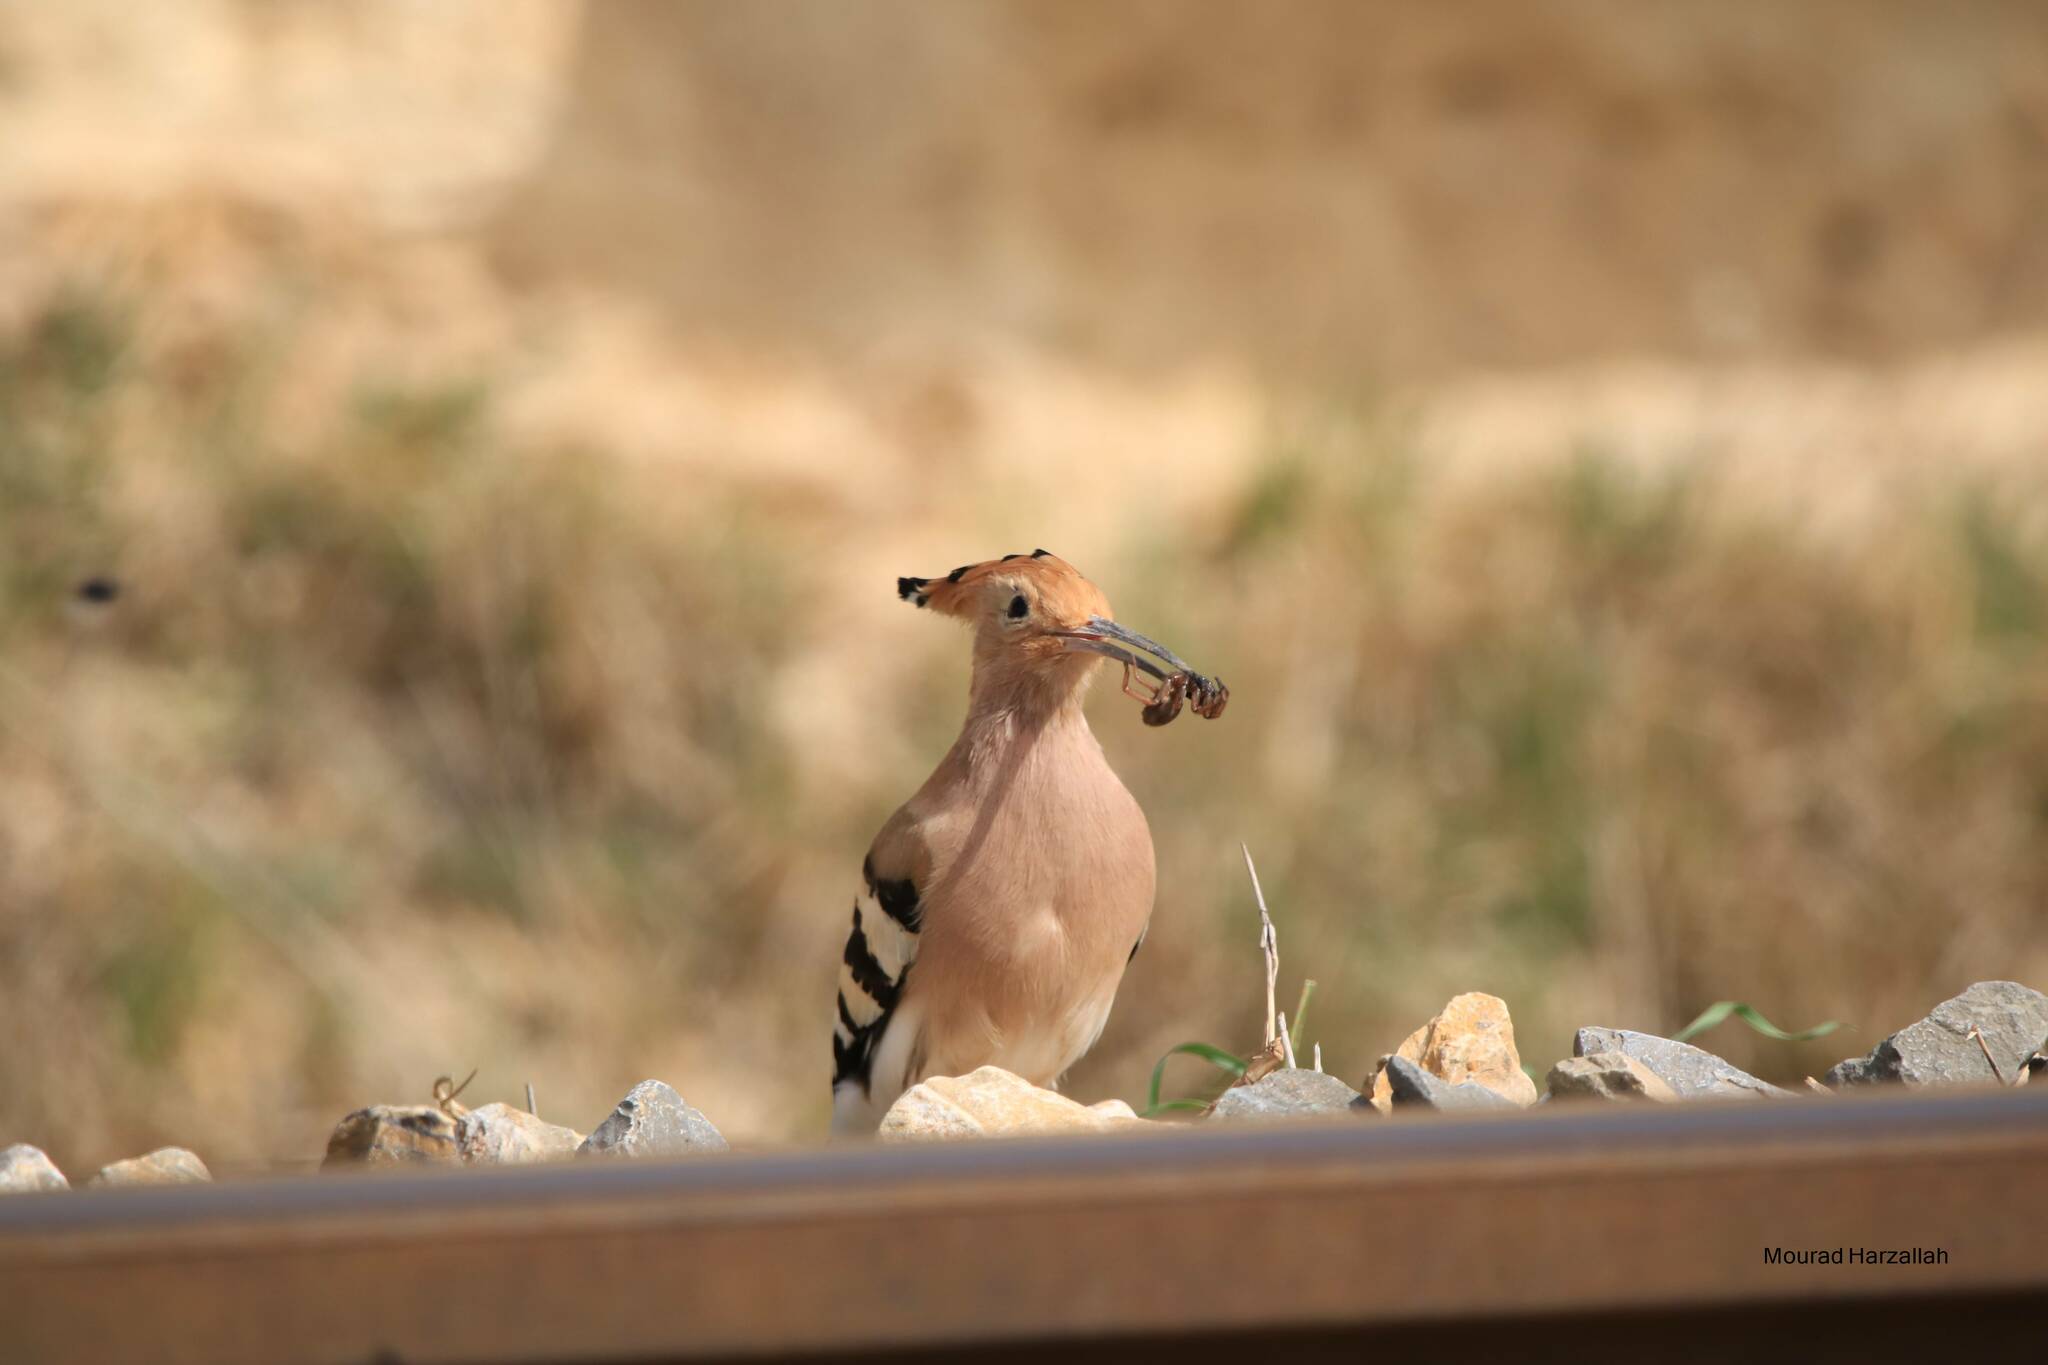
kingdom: Animalia
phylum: Chordata
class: Aves
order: Bucerotiformes
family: Upupidae
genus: Upupa
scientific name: Upupa epops
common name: Eurasian hoopoe
